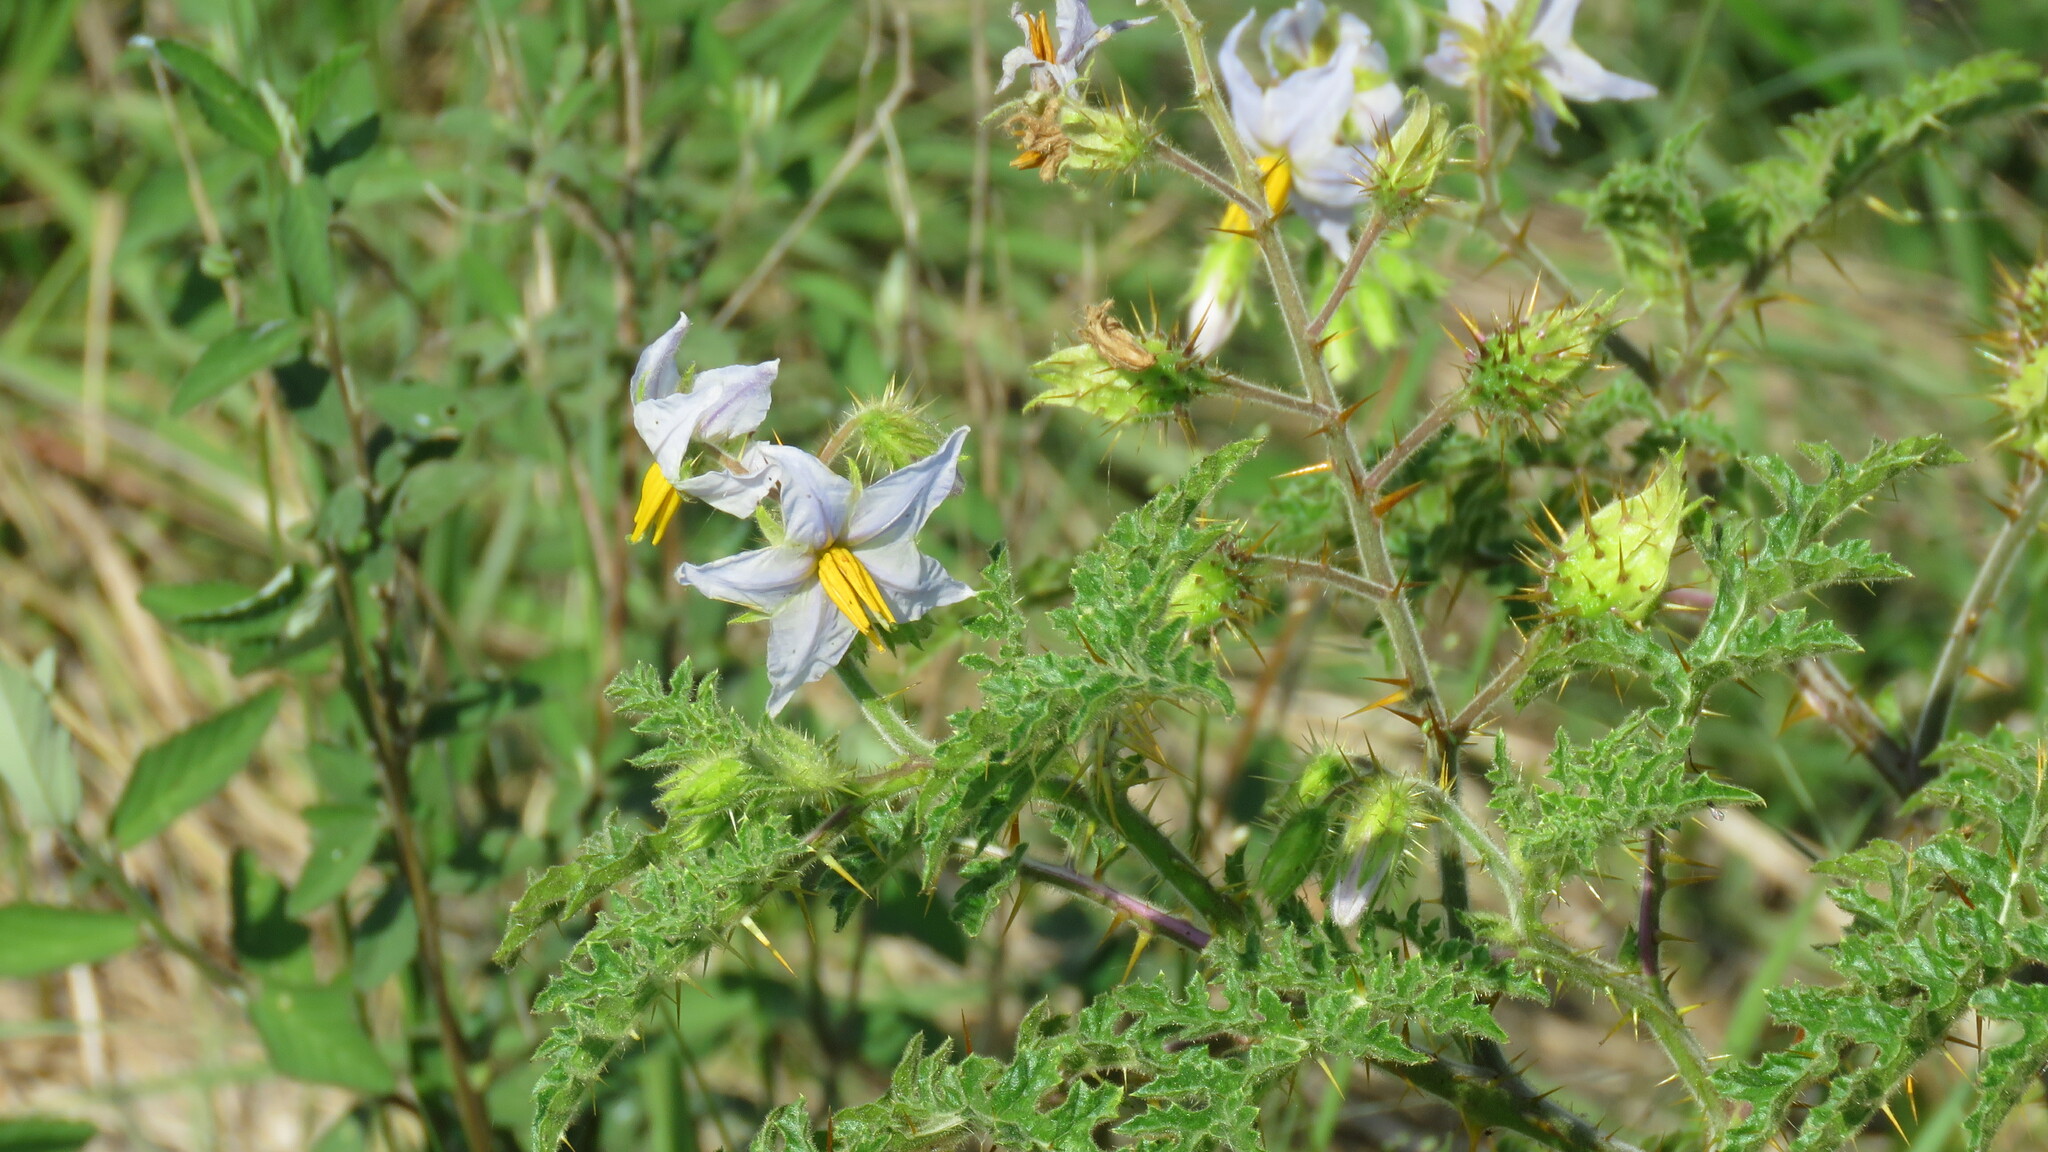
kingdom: Plantae
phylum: Tracheophyta
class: Magnoliopsida
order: Solanales
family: Solanaceae
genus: Solanum
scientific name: Solanum sisymbriifolium
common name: Red buffalo-bur
